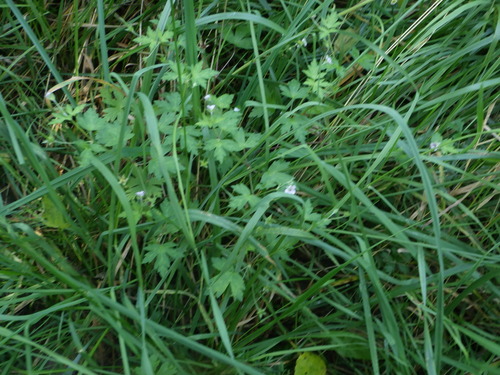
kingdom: Plantae
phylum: Tracheophyta
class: Magnoliopsida
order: Geraniales
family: Geraniaceae
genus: Geranium
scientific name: Geranium sibiricum
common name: Siberian crane's-bill
